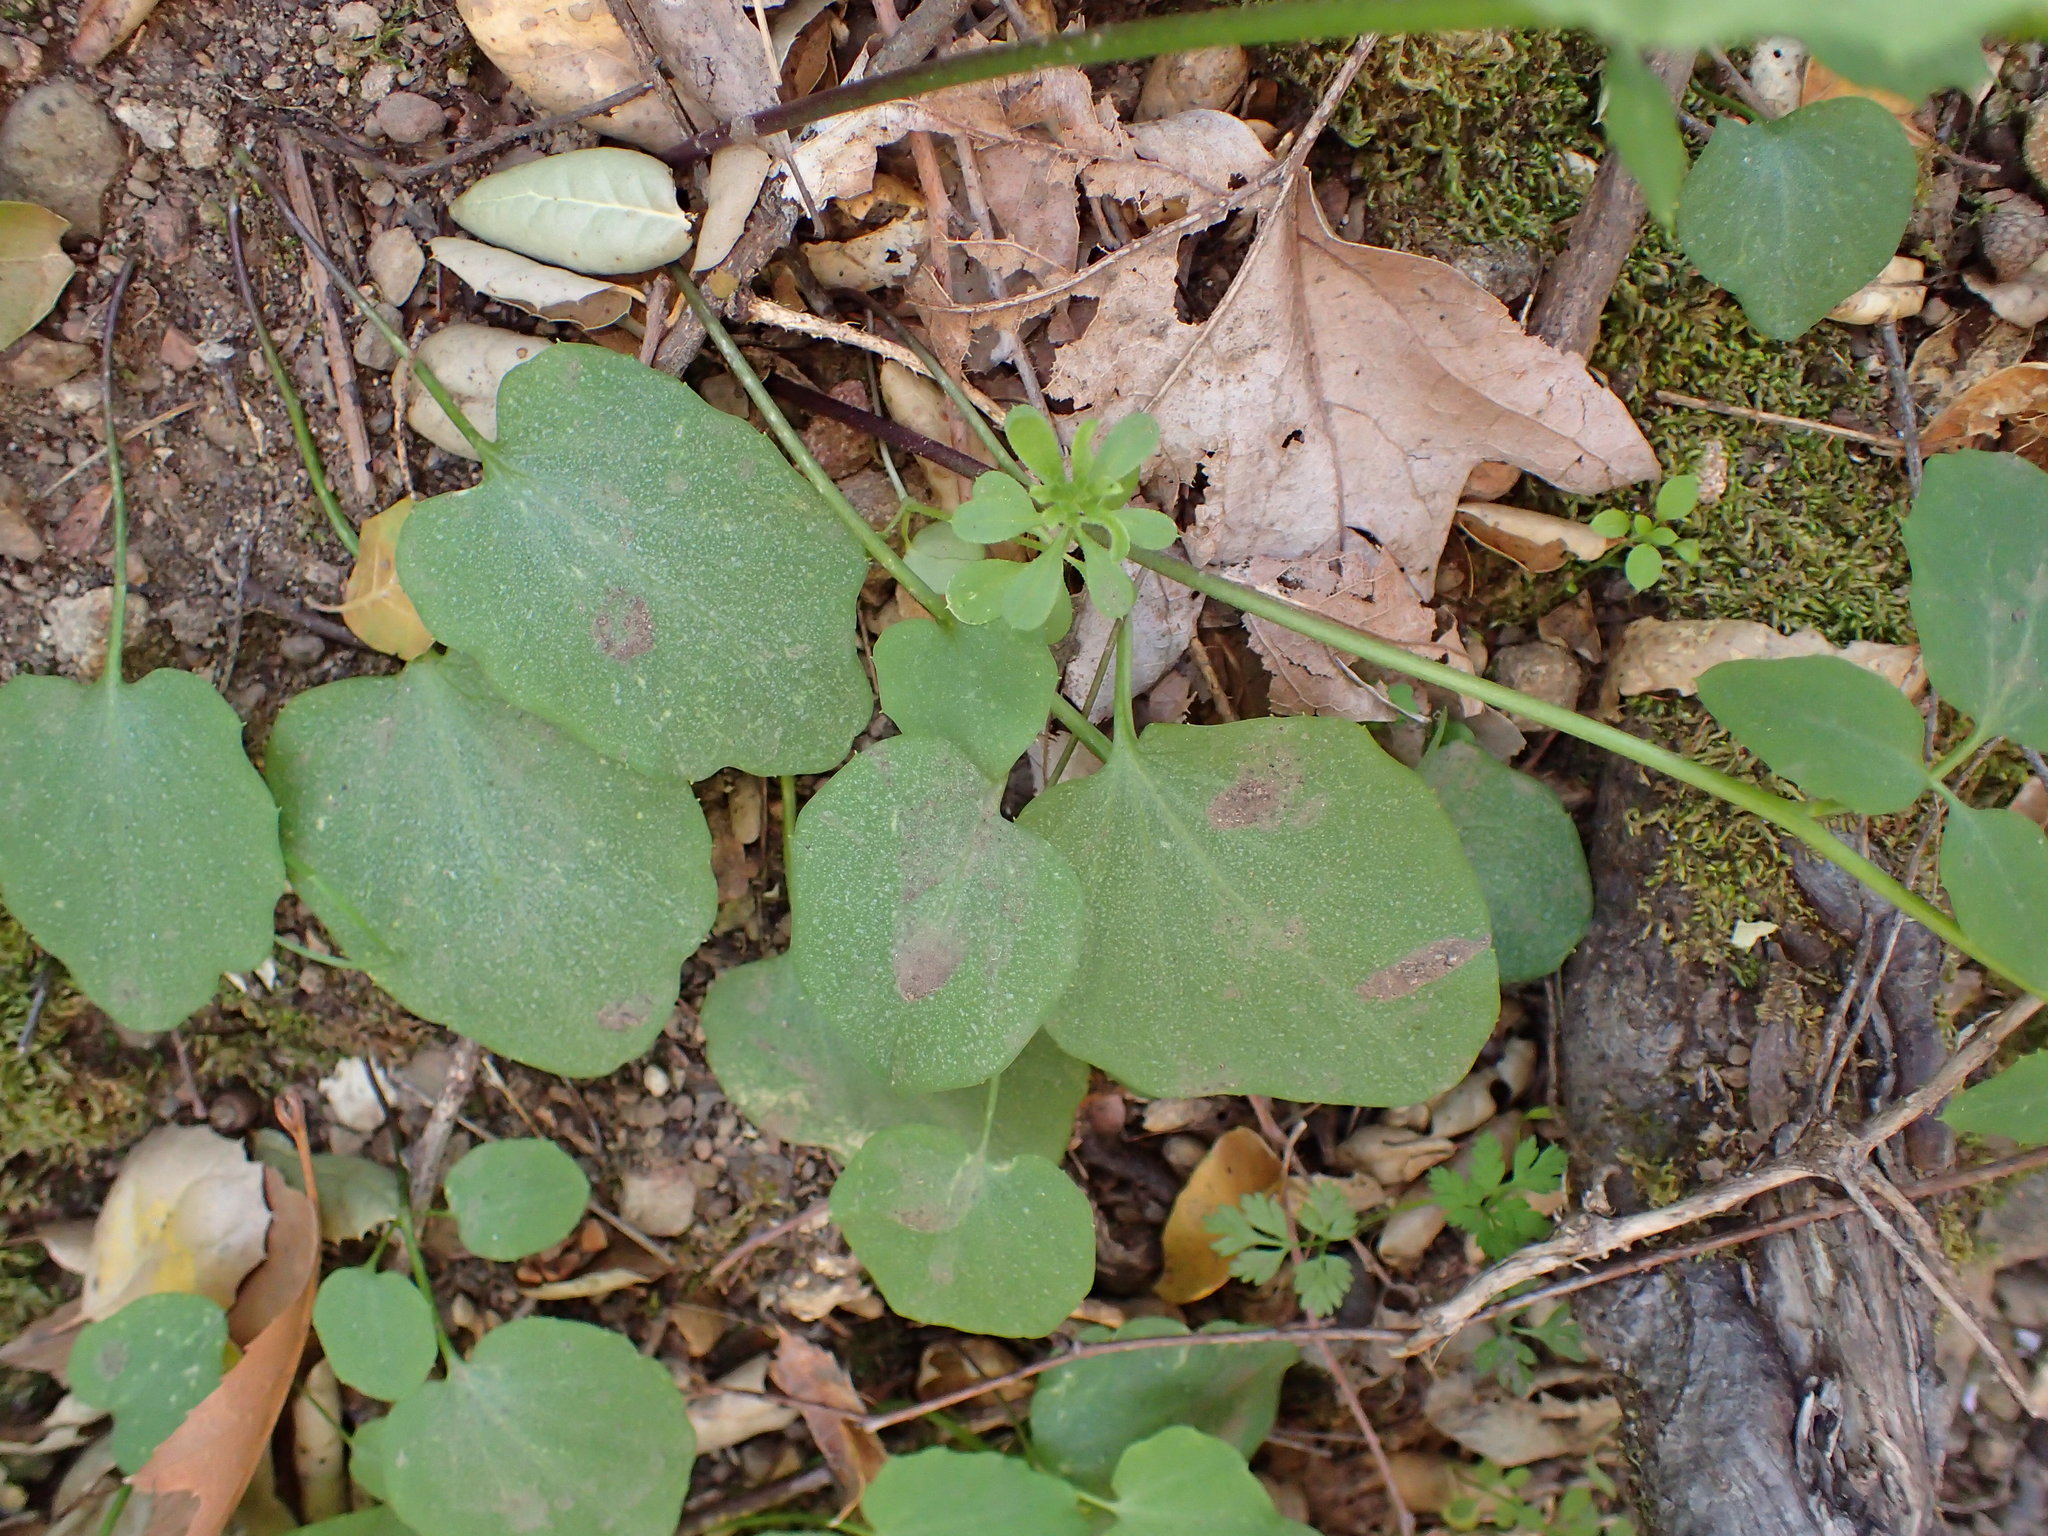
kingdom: Plantae
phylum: Tracheophyta
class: Magnoliopsida
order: Brassicales
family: Brassicaceae
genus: Cardamine
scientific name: Cardamine californica
